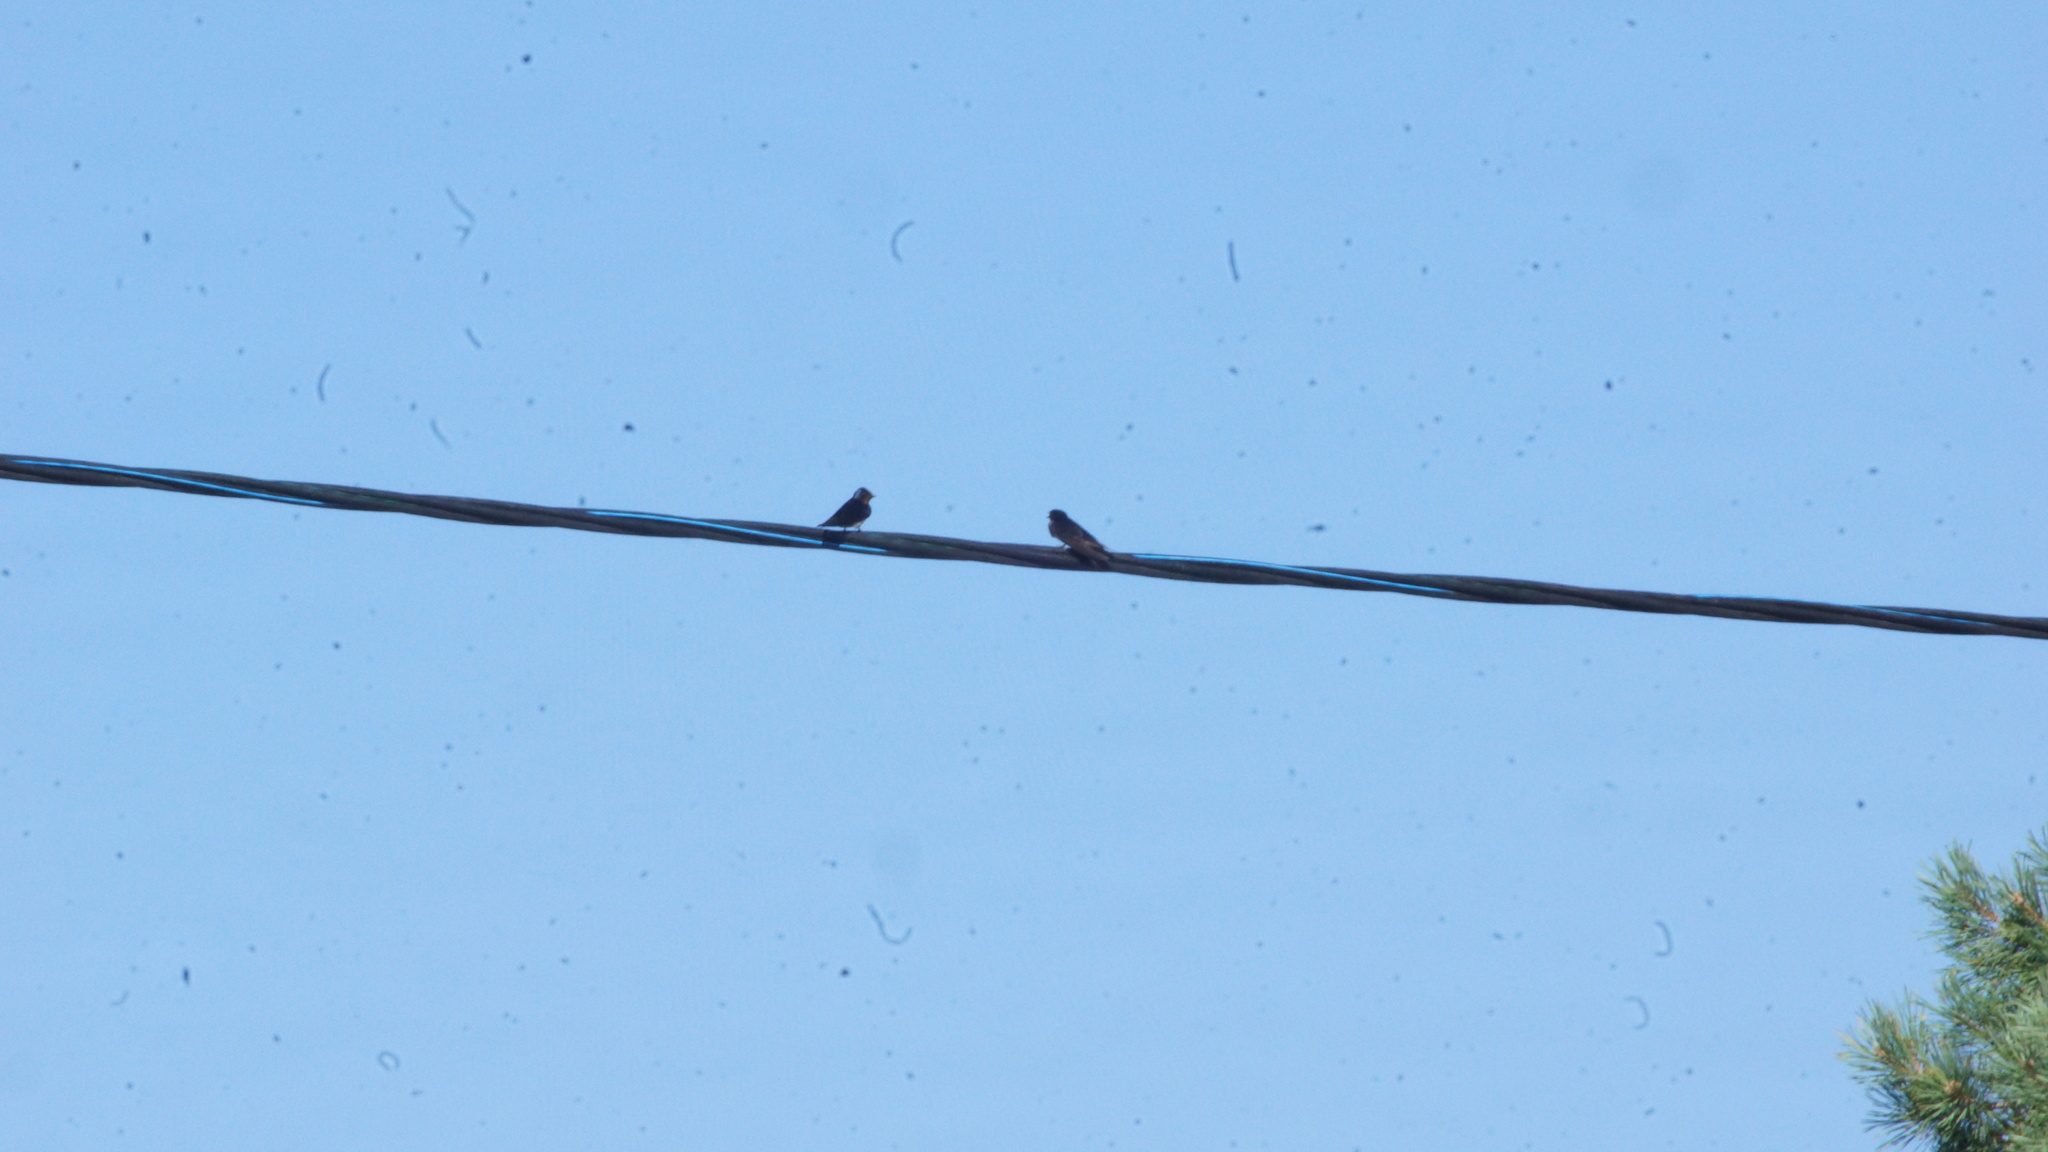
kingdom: Animalia
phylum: Chordata
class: Aves
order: Passeriformes
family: Hirundinidae
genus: Hirundo
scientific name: Hirundo rustica
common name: Barn swallow
